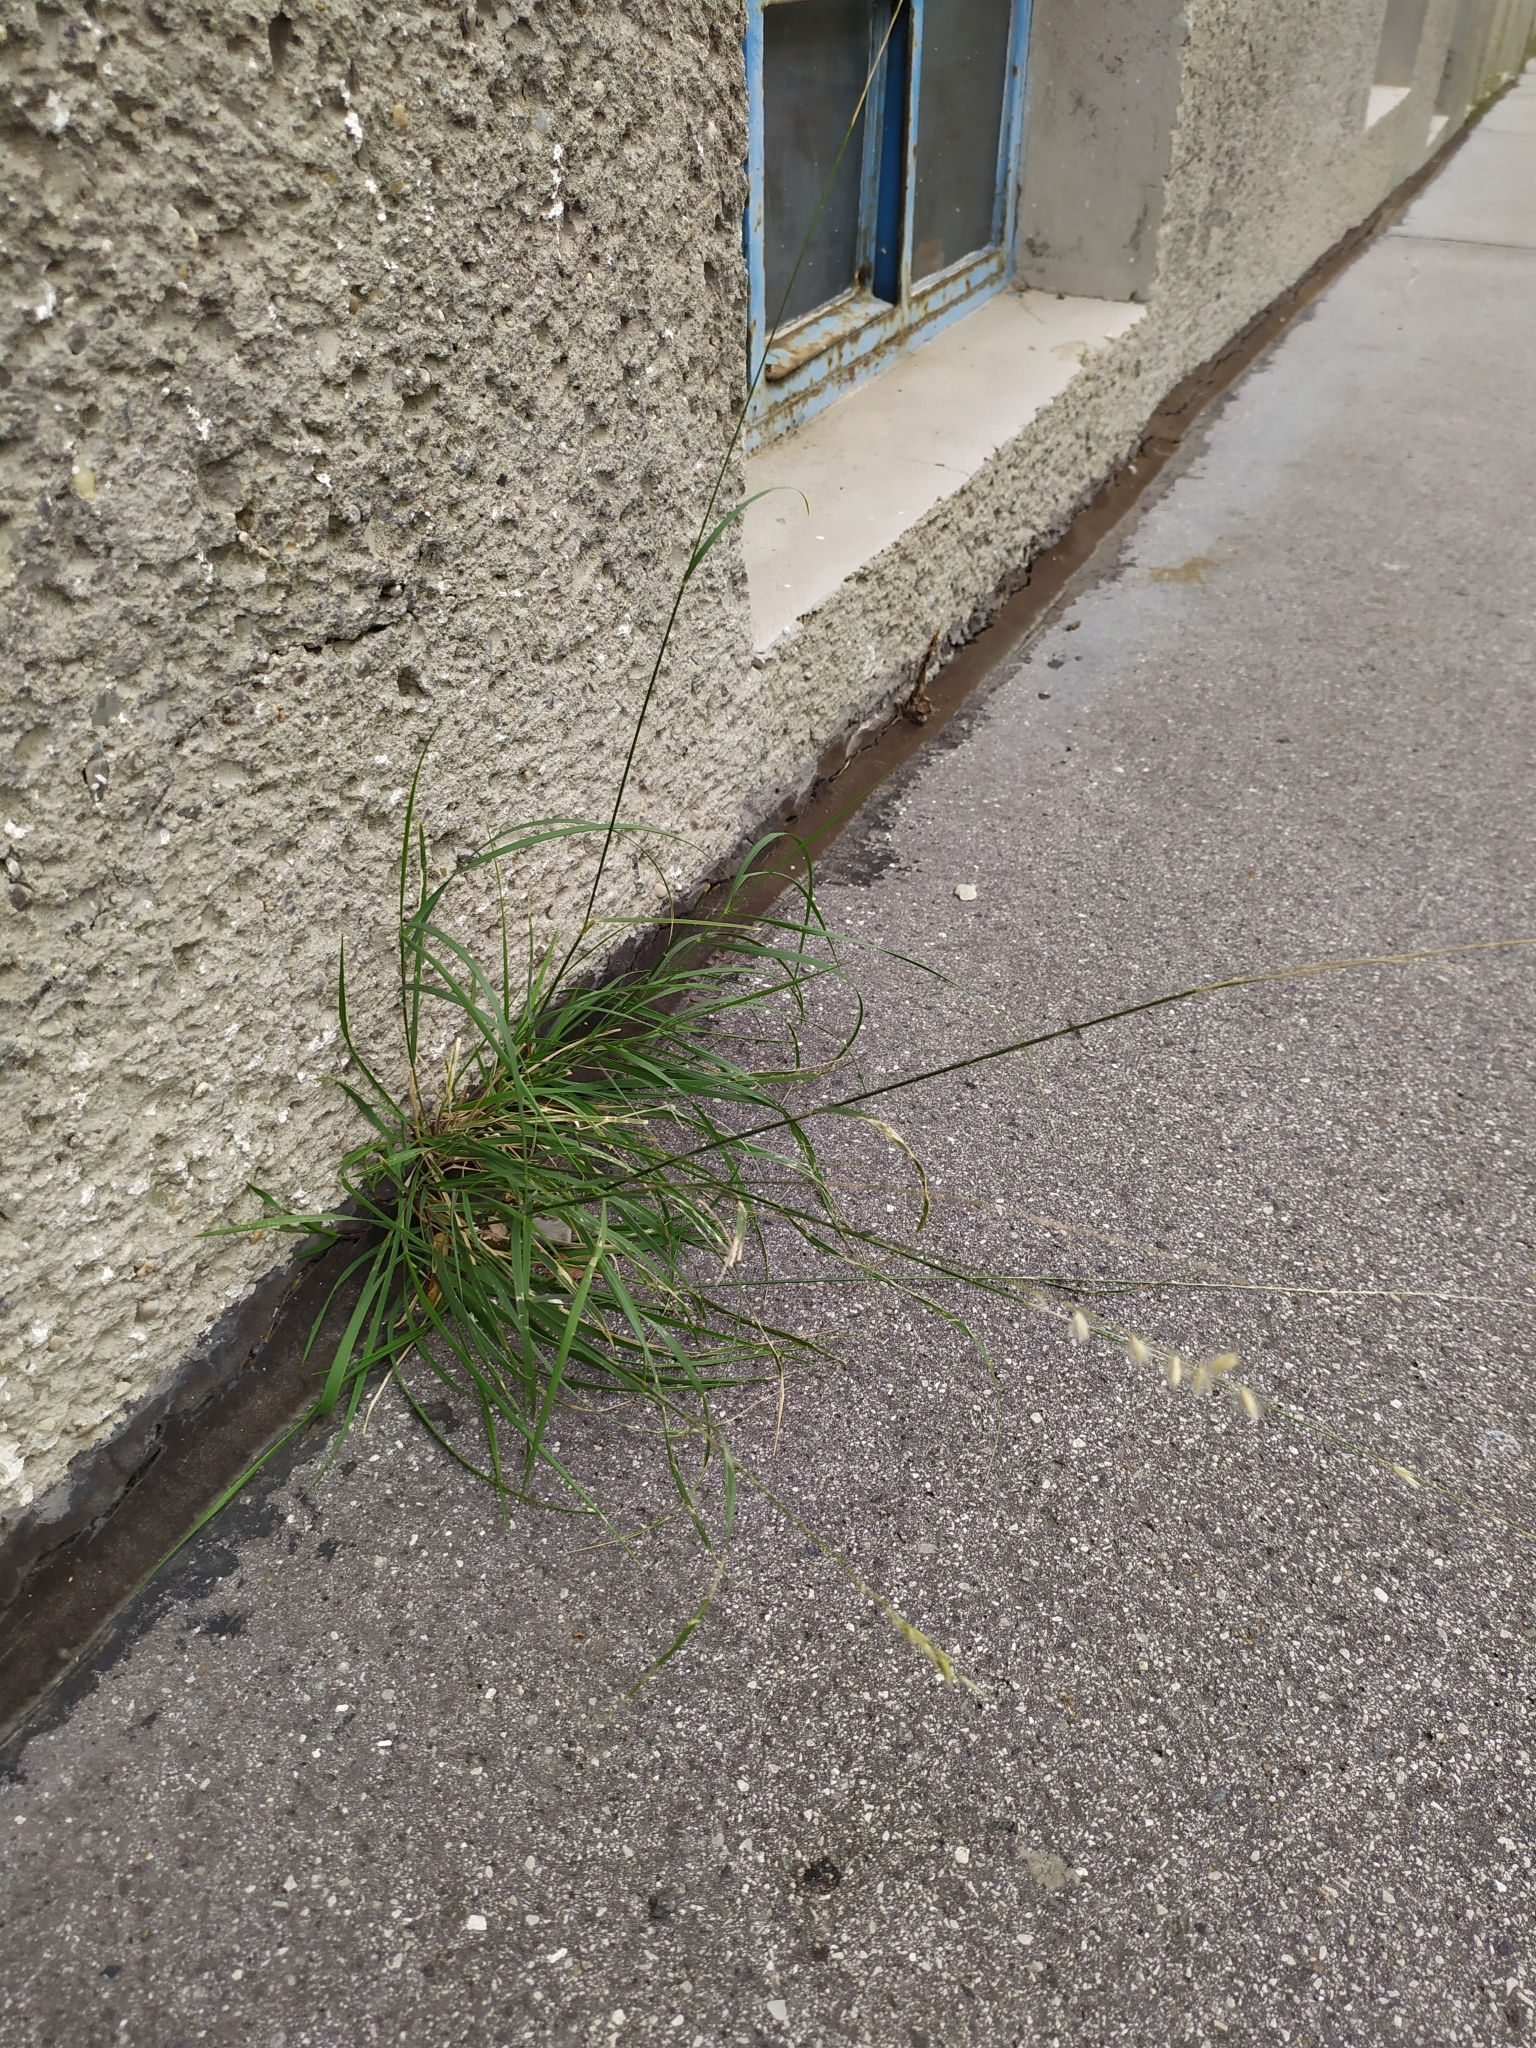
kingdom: Plantae
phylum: Tracheophyta
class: Liliopsida
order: Poales
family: Poaceae
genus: Melica
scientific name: Melica ciliata
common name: Hairy melicgrass
